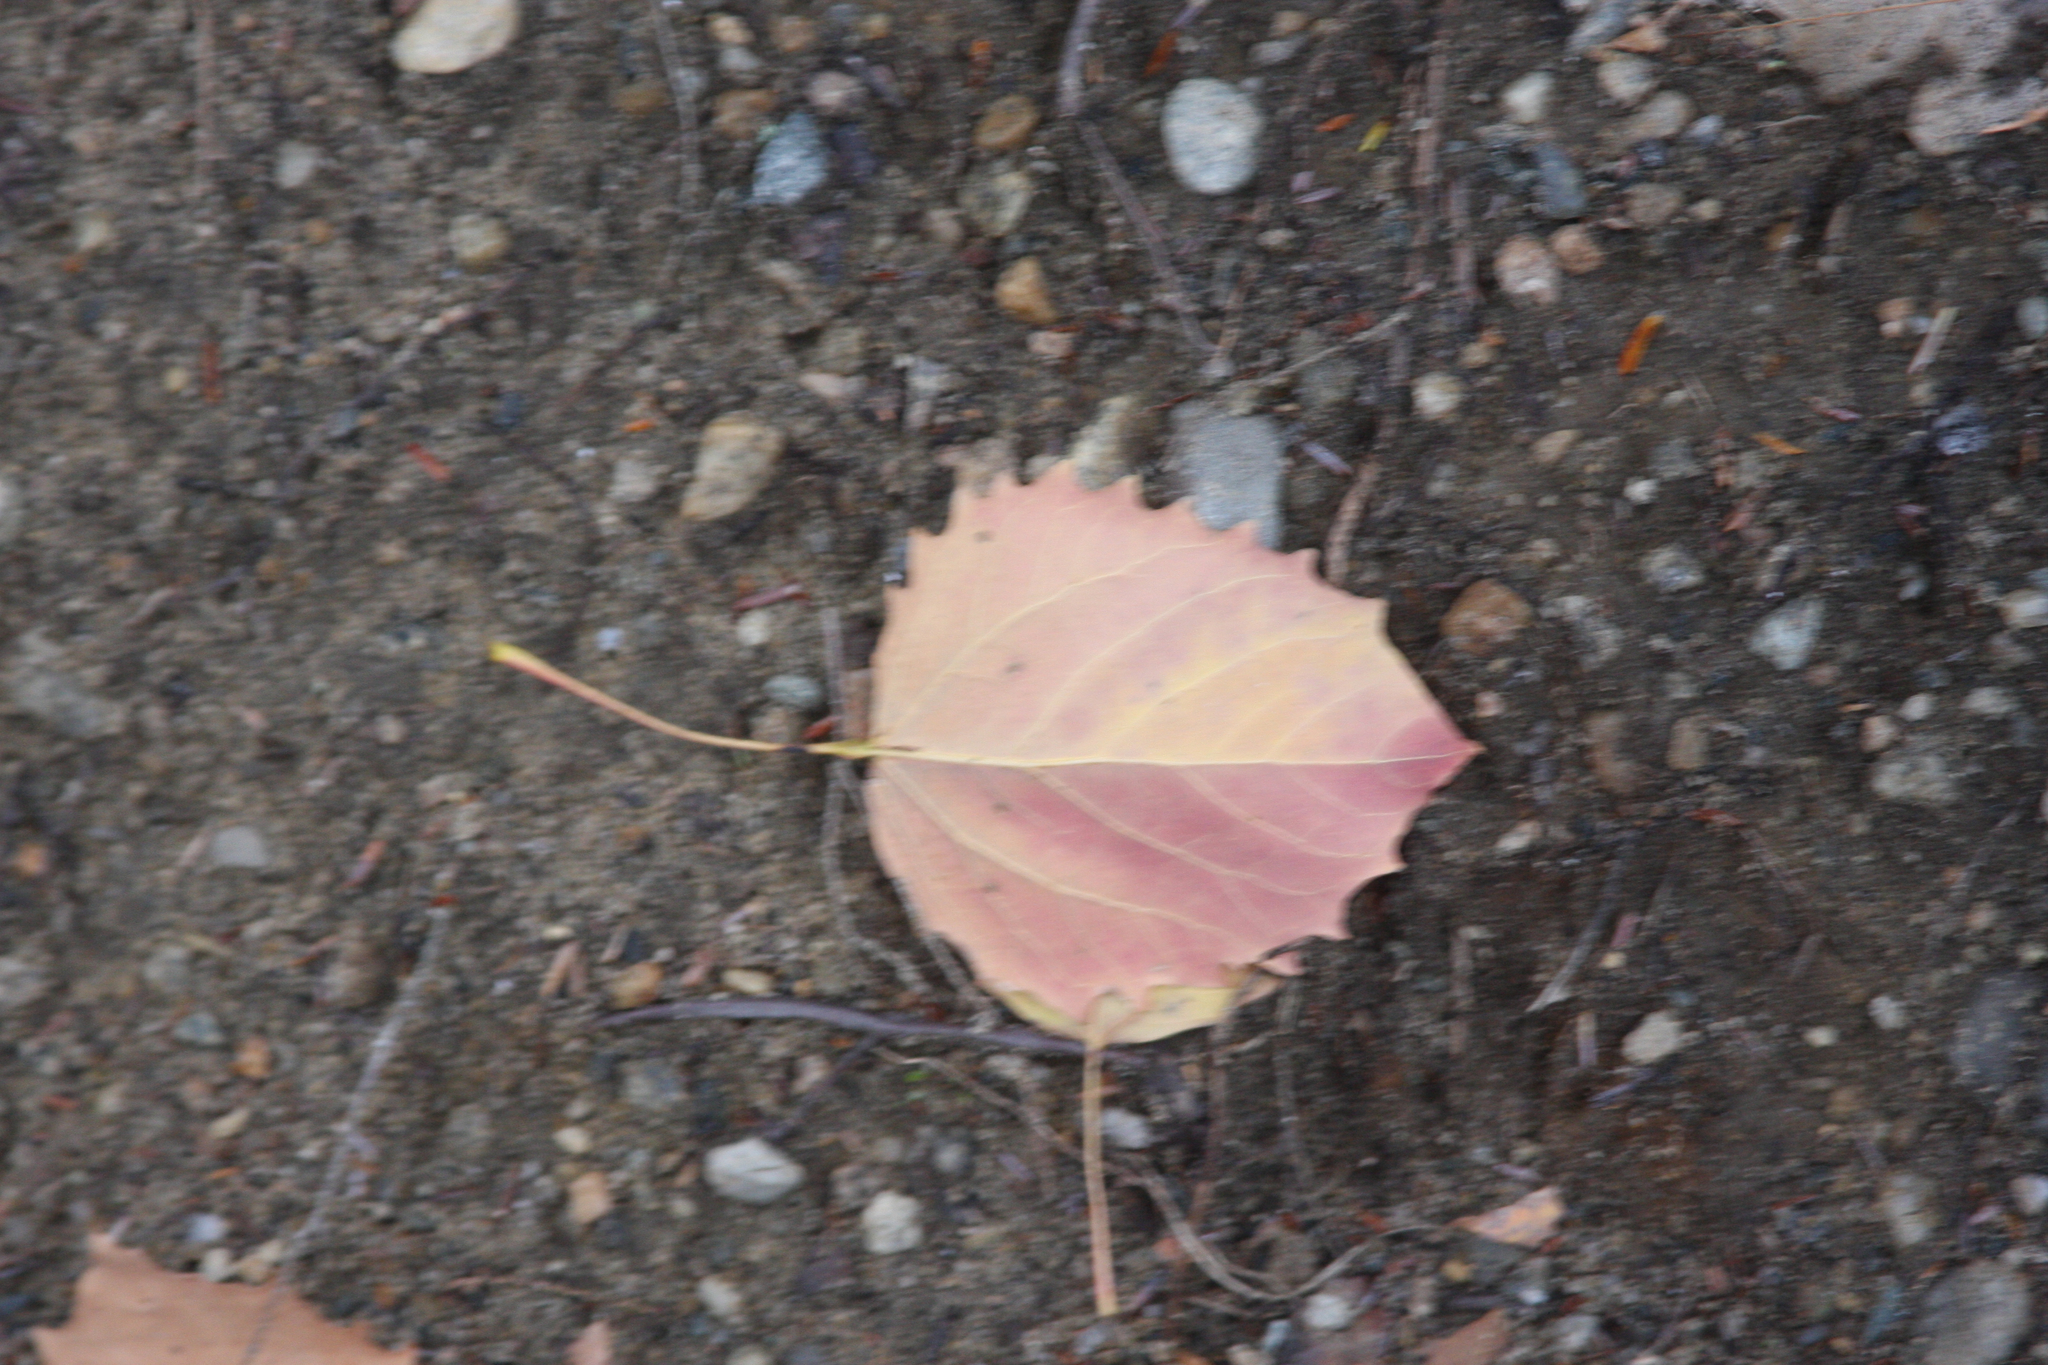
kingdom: Plantae
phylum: Tracheophyta
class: Magnoliopsida
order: Malpighiales
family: Salicaceae
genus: Populus
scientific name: Populus grandidentata
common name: Bigtooth aspen
